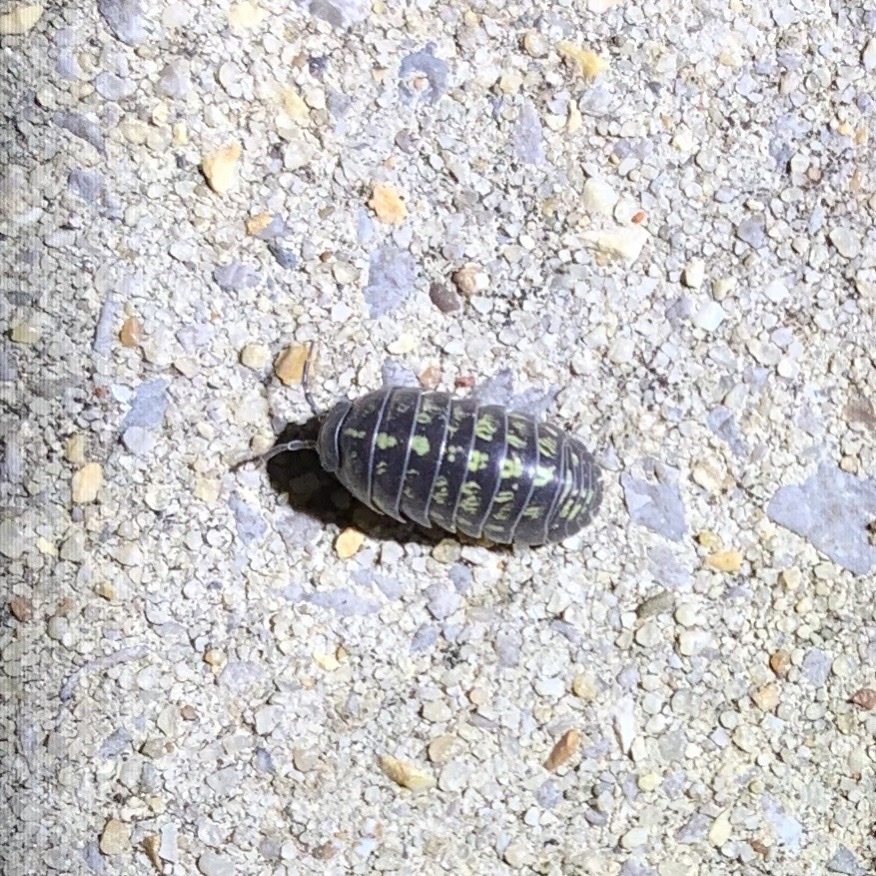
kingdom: Animalia
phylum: Arthropoda
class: Malacostraca
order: Isopoda
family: Armadillidiidae
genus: Armadillidium
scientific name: Armadillidium vulgare
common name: Common pill woodlouse
